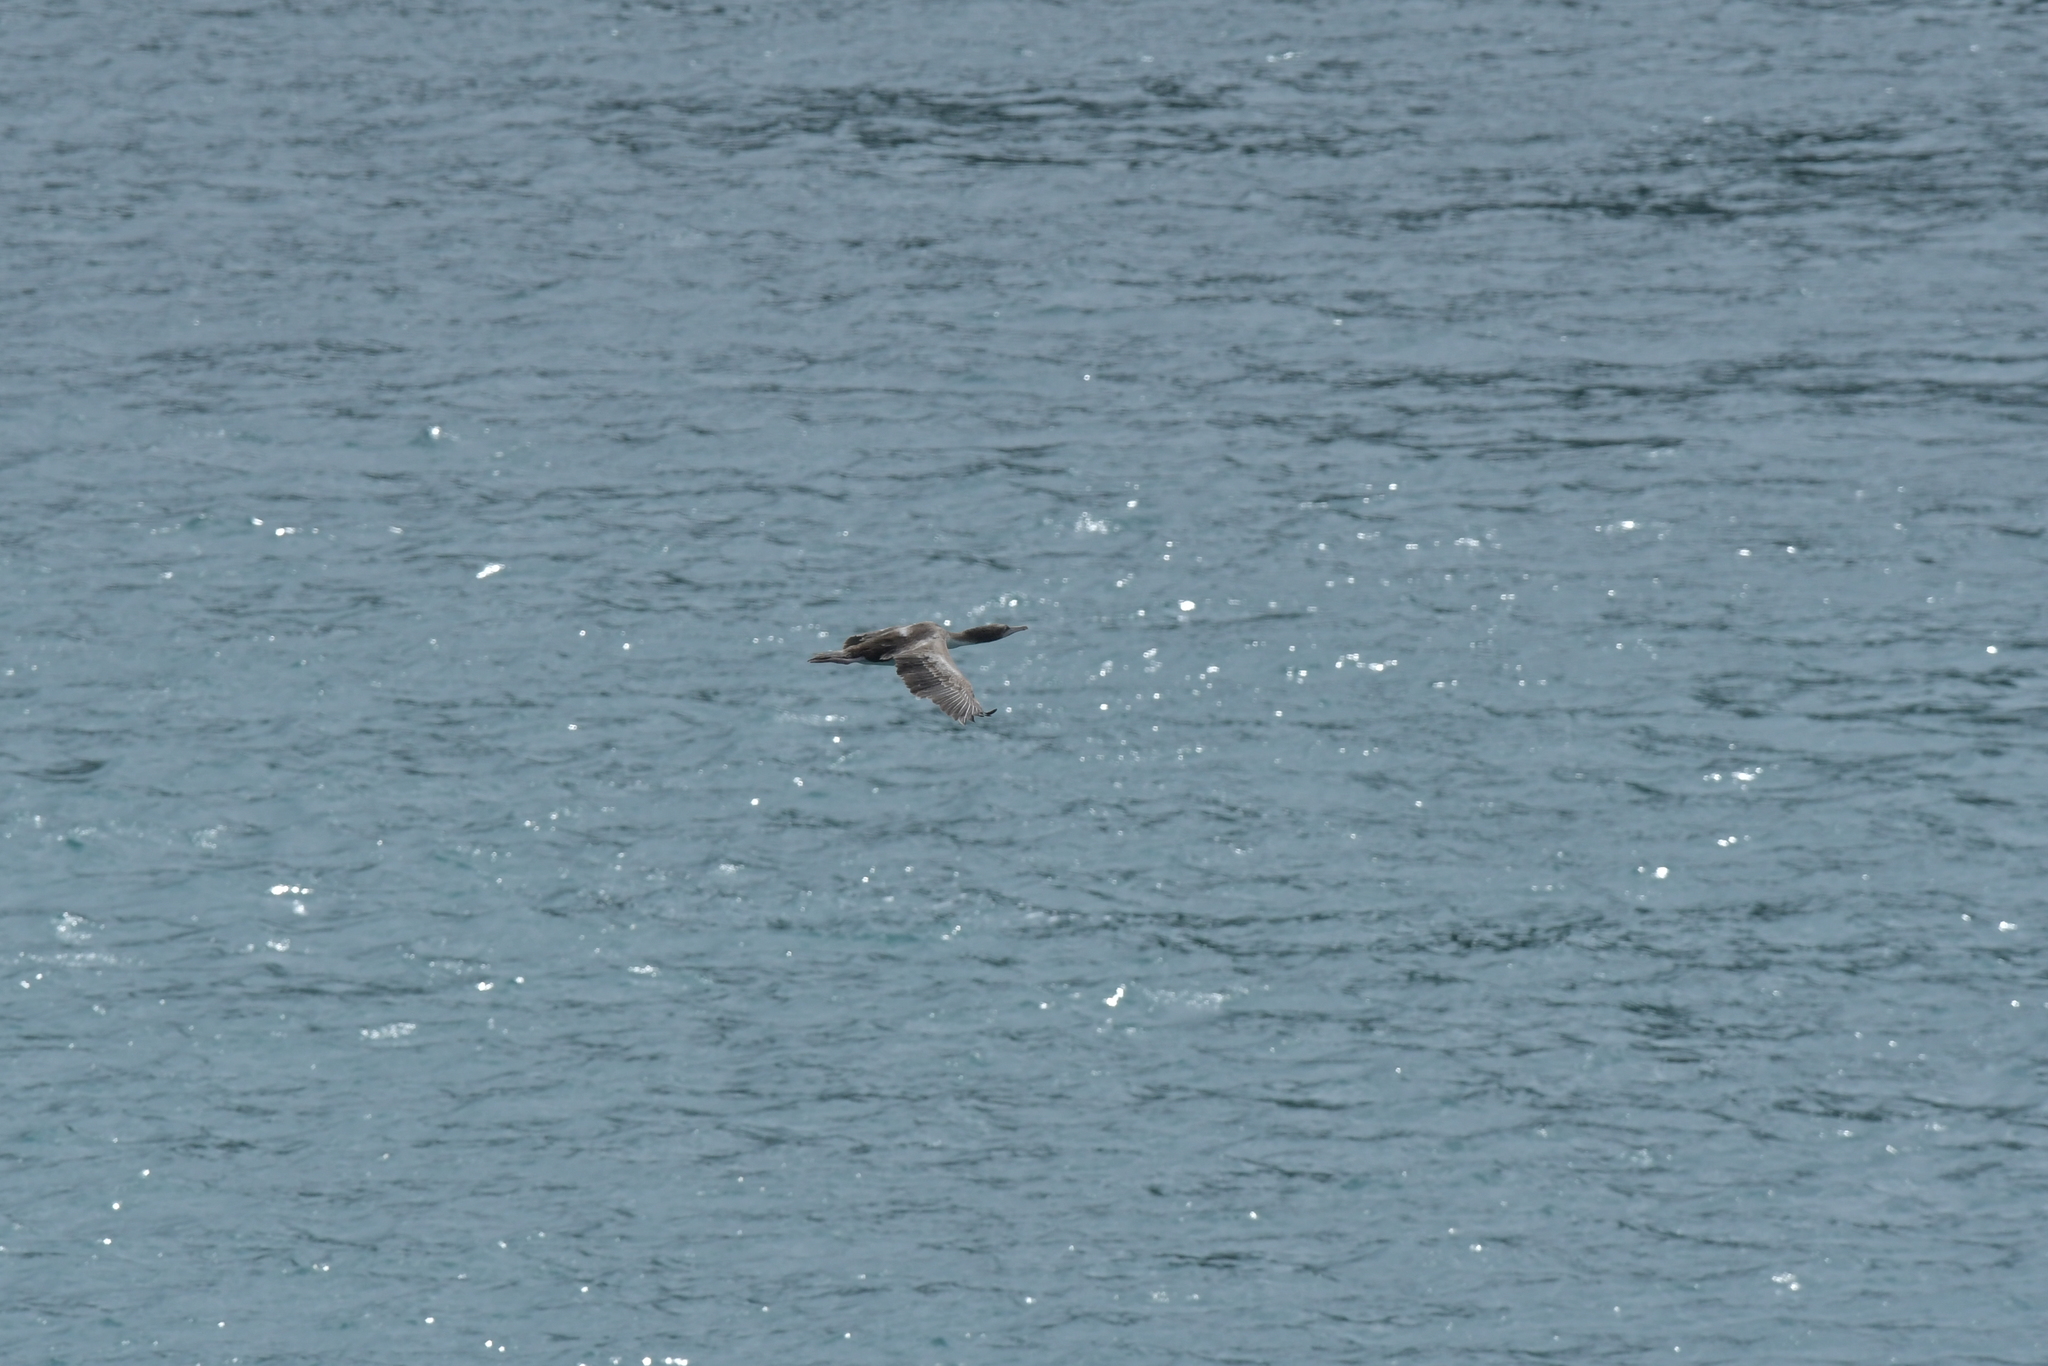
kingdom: Animalia
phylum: Chordata
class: Aves
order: Suliformes
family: Phalacrocoracidae
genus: Leucocarbo
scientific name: Leucocarbo carunculatus
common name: Rough-faced shag
